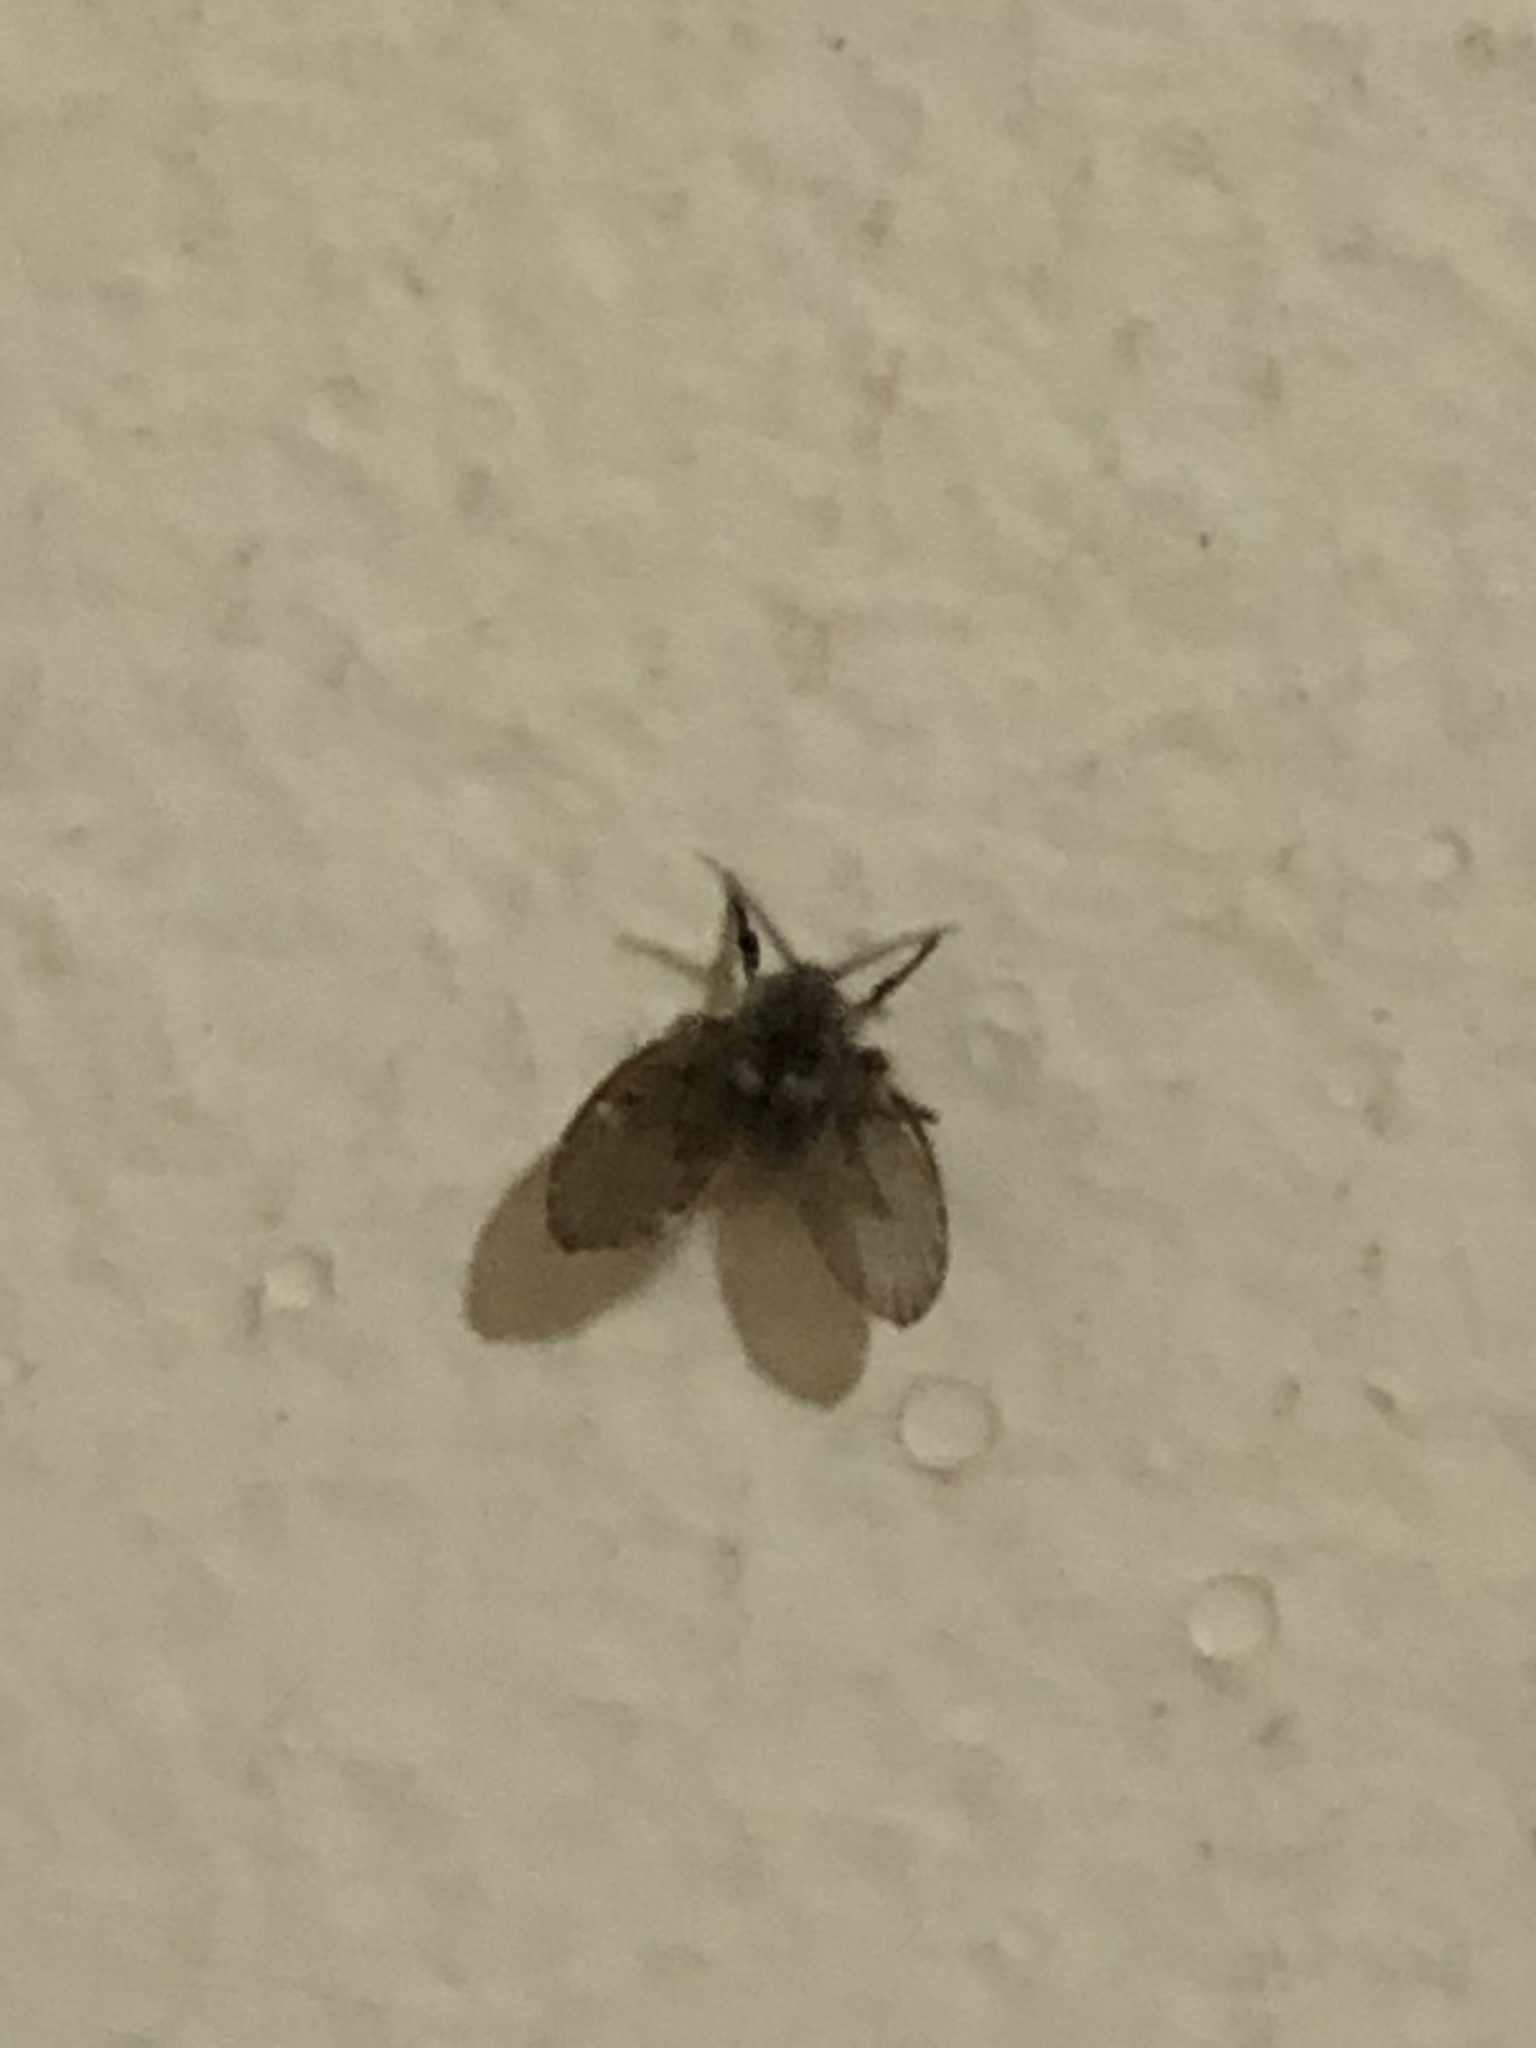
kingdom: Animalia
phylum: Arthropoda
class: Insecta
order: Diptera
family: Psychodidae
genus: Clogmia
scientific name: Clogmia albipunctatus
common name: White-spotted moth fly
